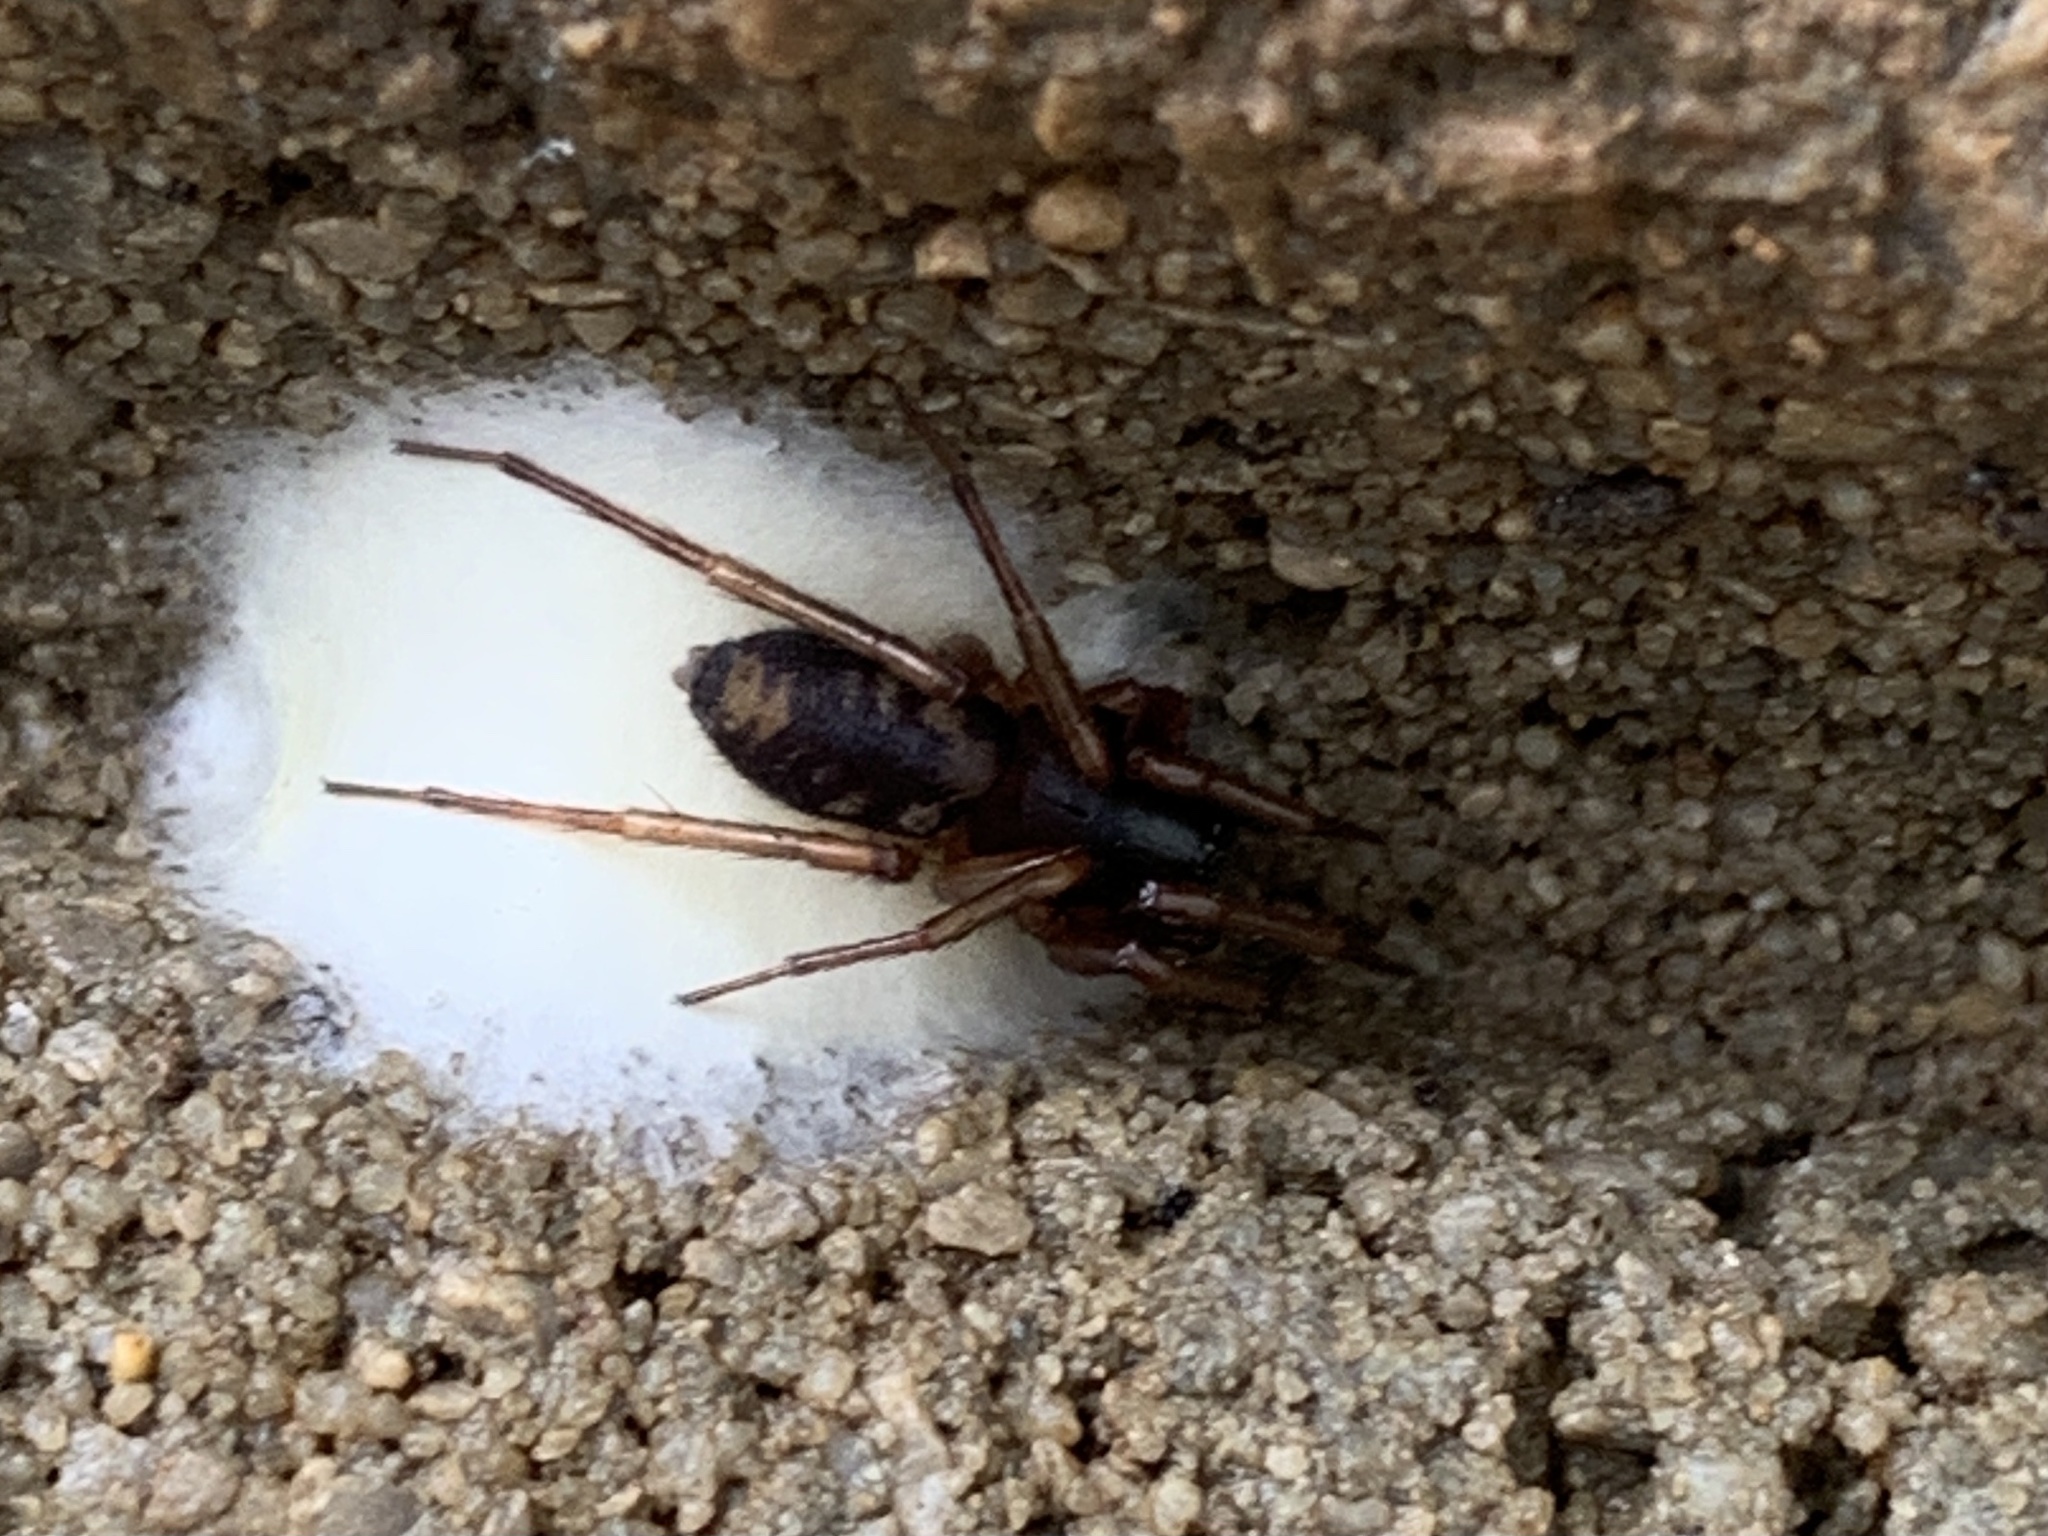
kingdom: Animalia
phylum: Arthropoda
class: Arachnida
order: Araneae
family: Corinnidae
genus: Falconina
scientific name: Falconina gracilis
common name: Antmimic spider
